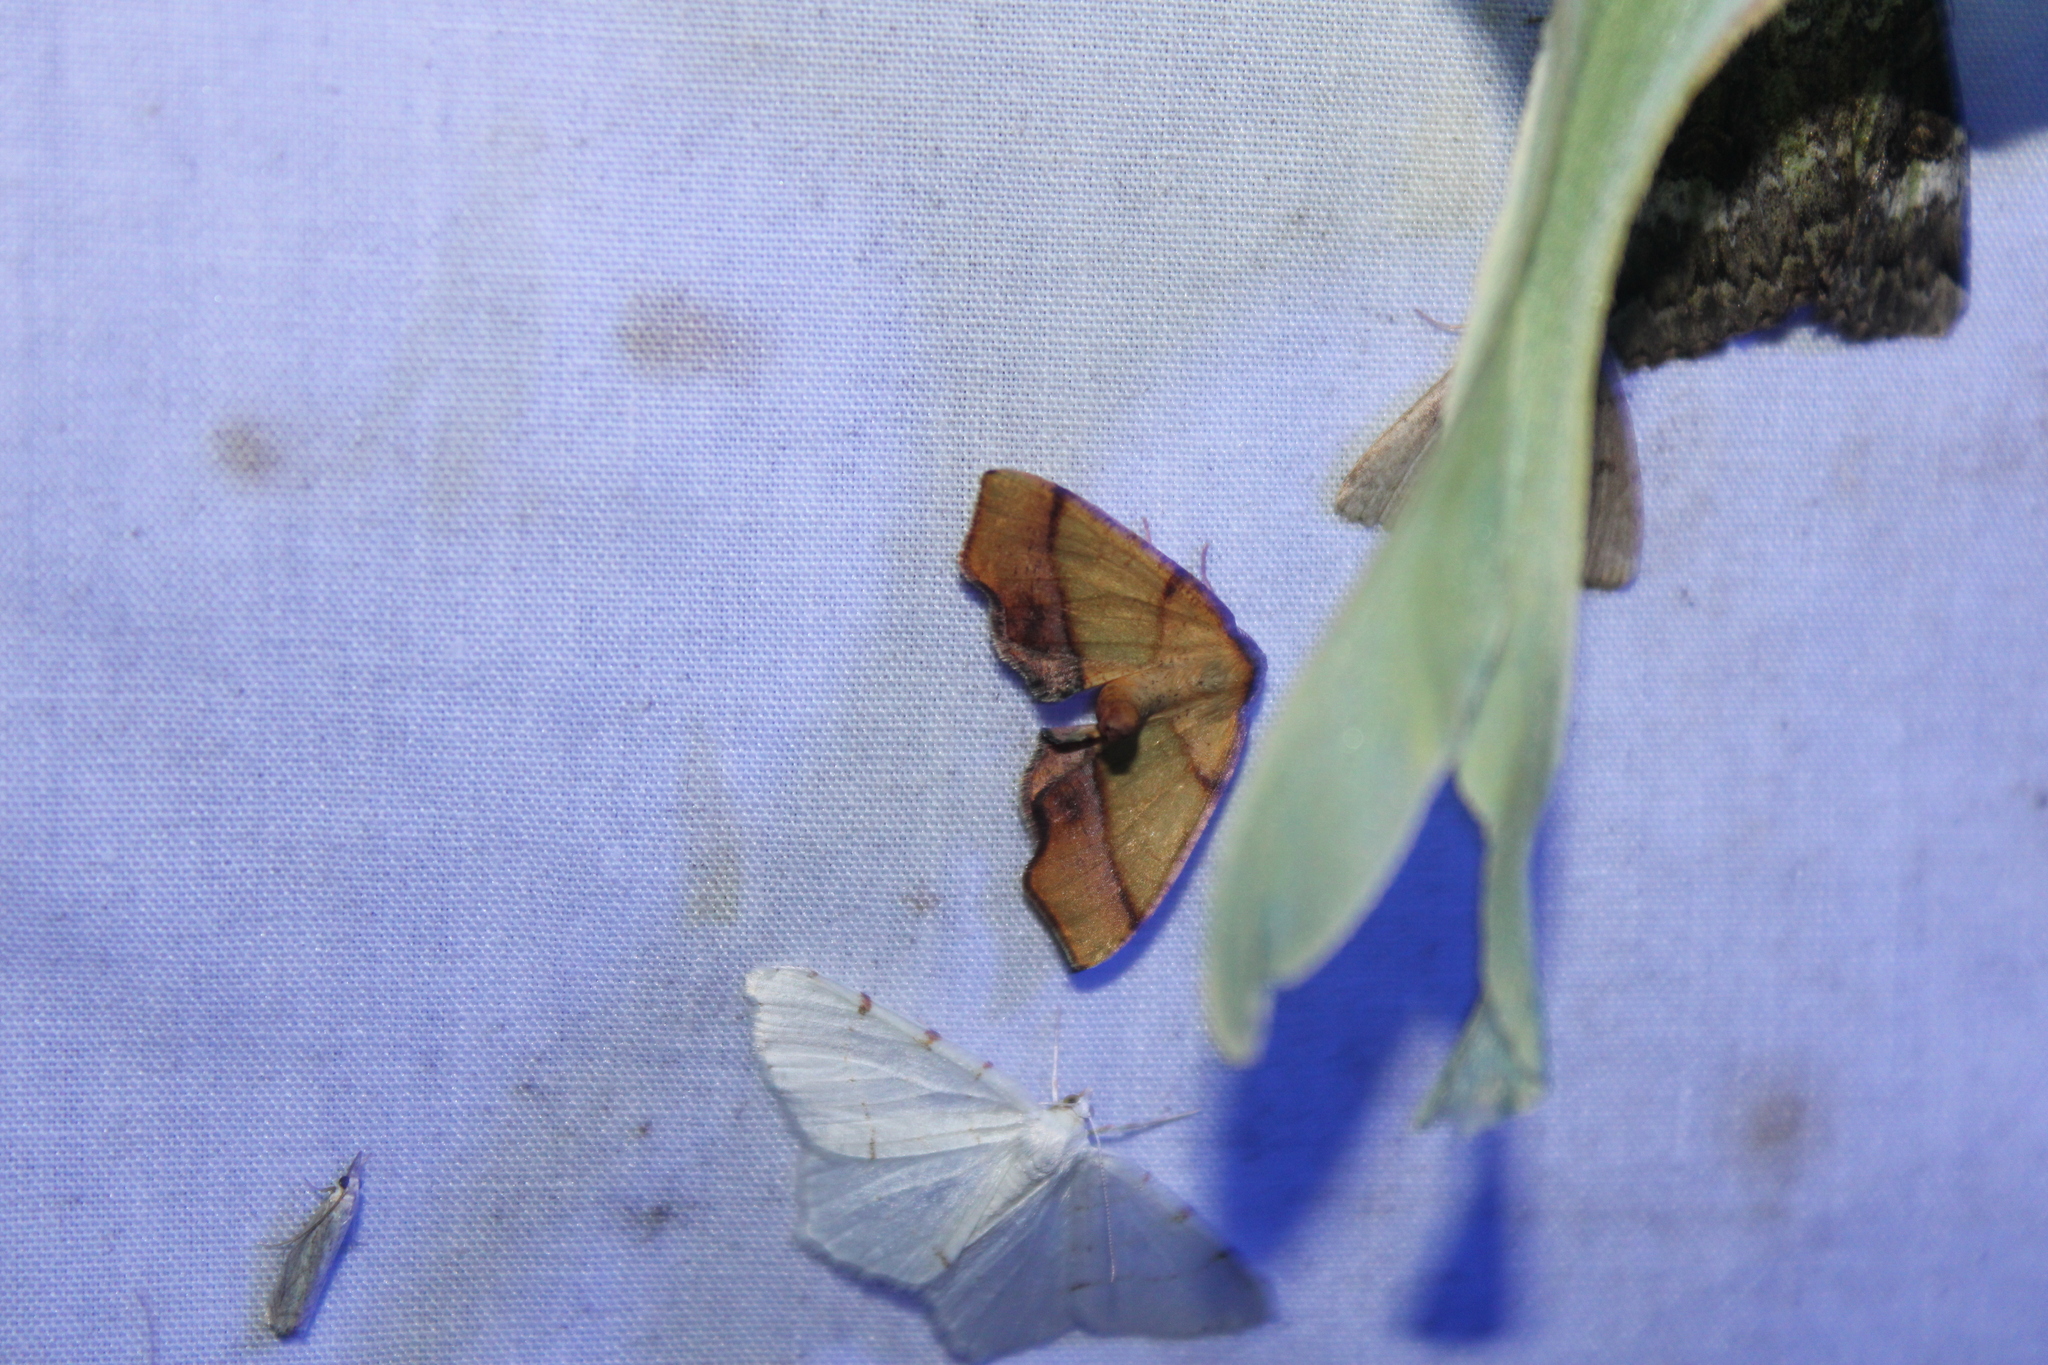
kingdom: Animalia
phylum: Arthropoda
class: Insecta
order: Lepidoptera
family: Geometridae
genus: Plagodis
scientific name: Plagodis phlogosaria
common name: Straight-lined plagodis
